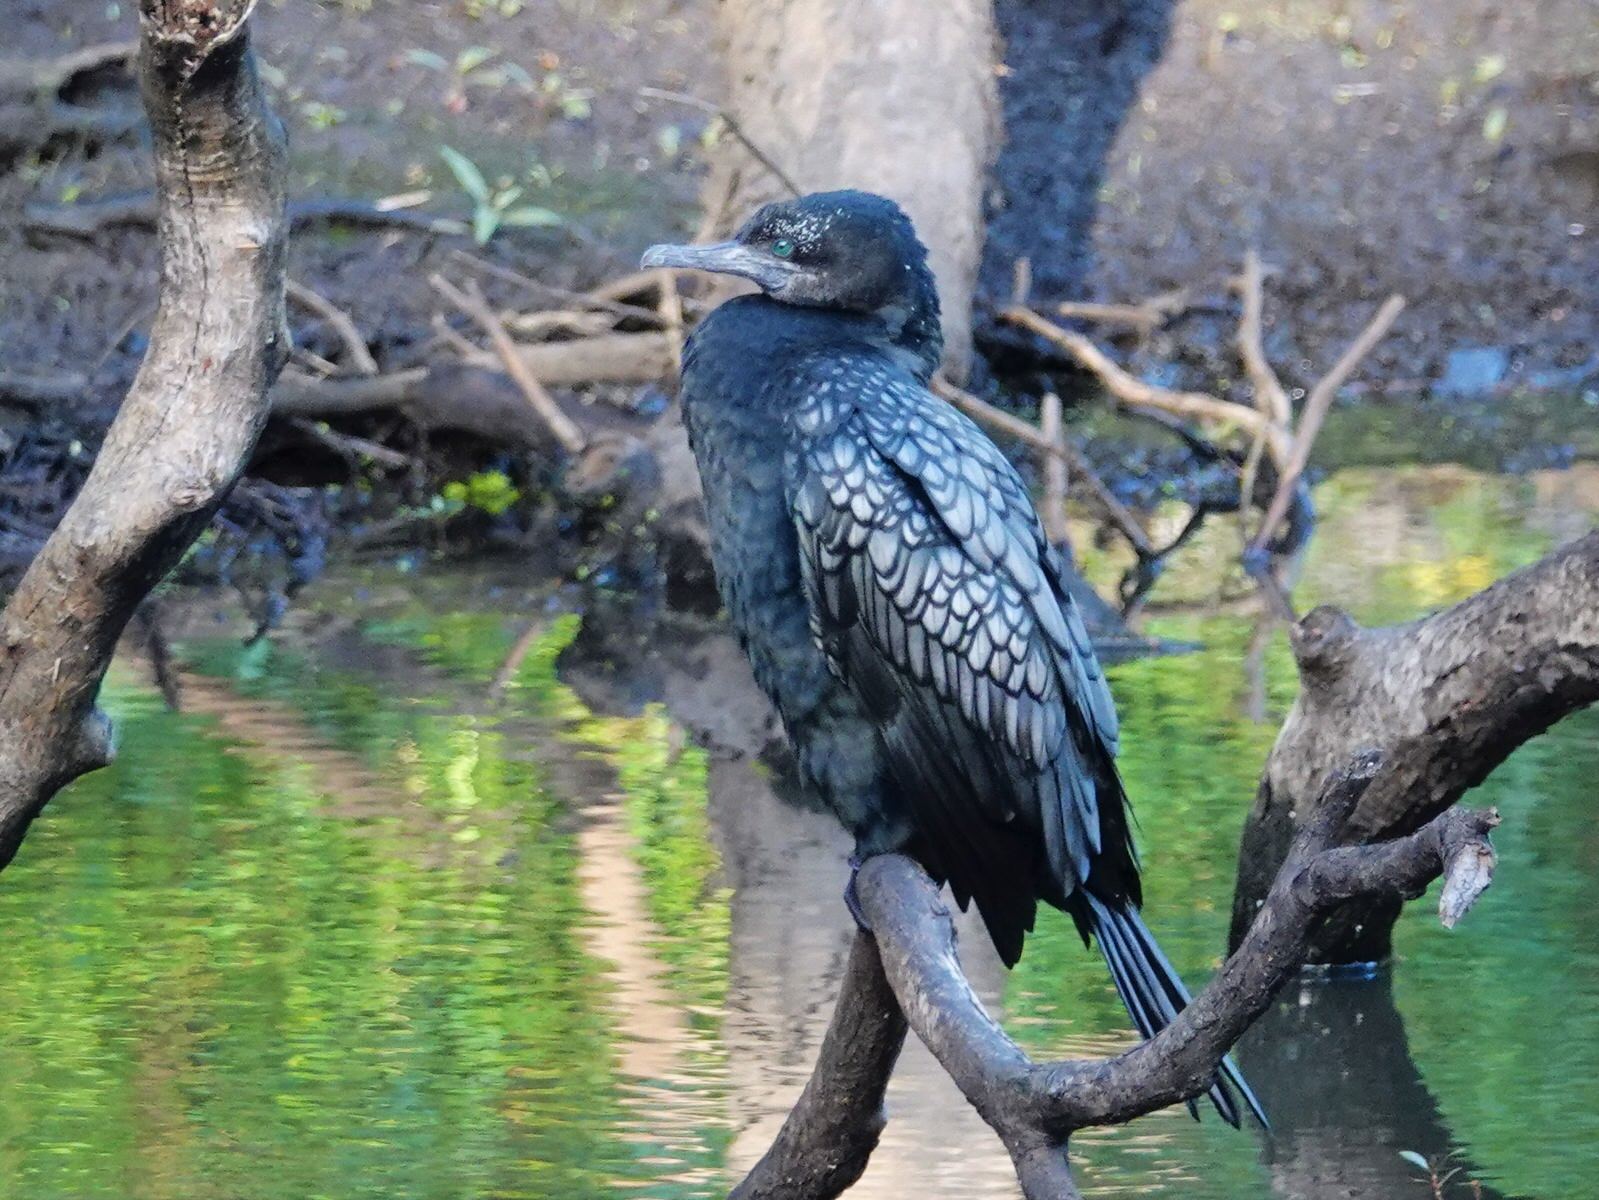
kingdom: Animalia
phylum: Chordata
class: Aves
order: Suliformes
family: Phalacrocoracidae
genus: Phalacrocorax
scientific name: Phalacrocorax sulcirostris
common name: Little black cormorant
